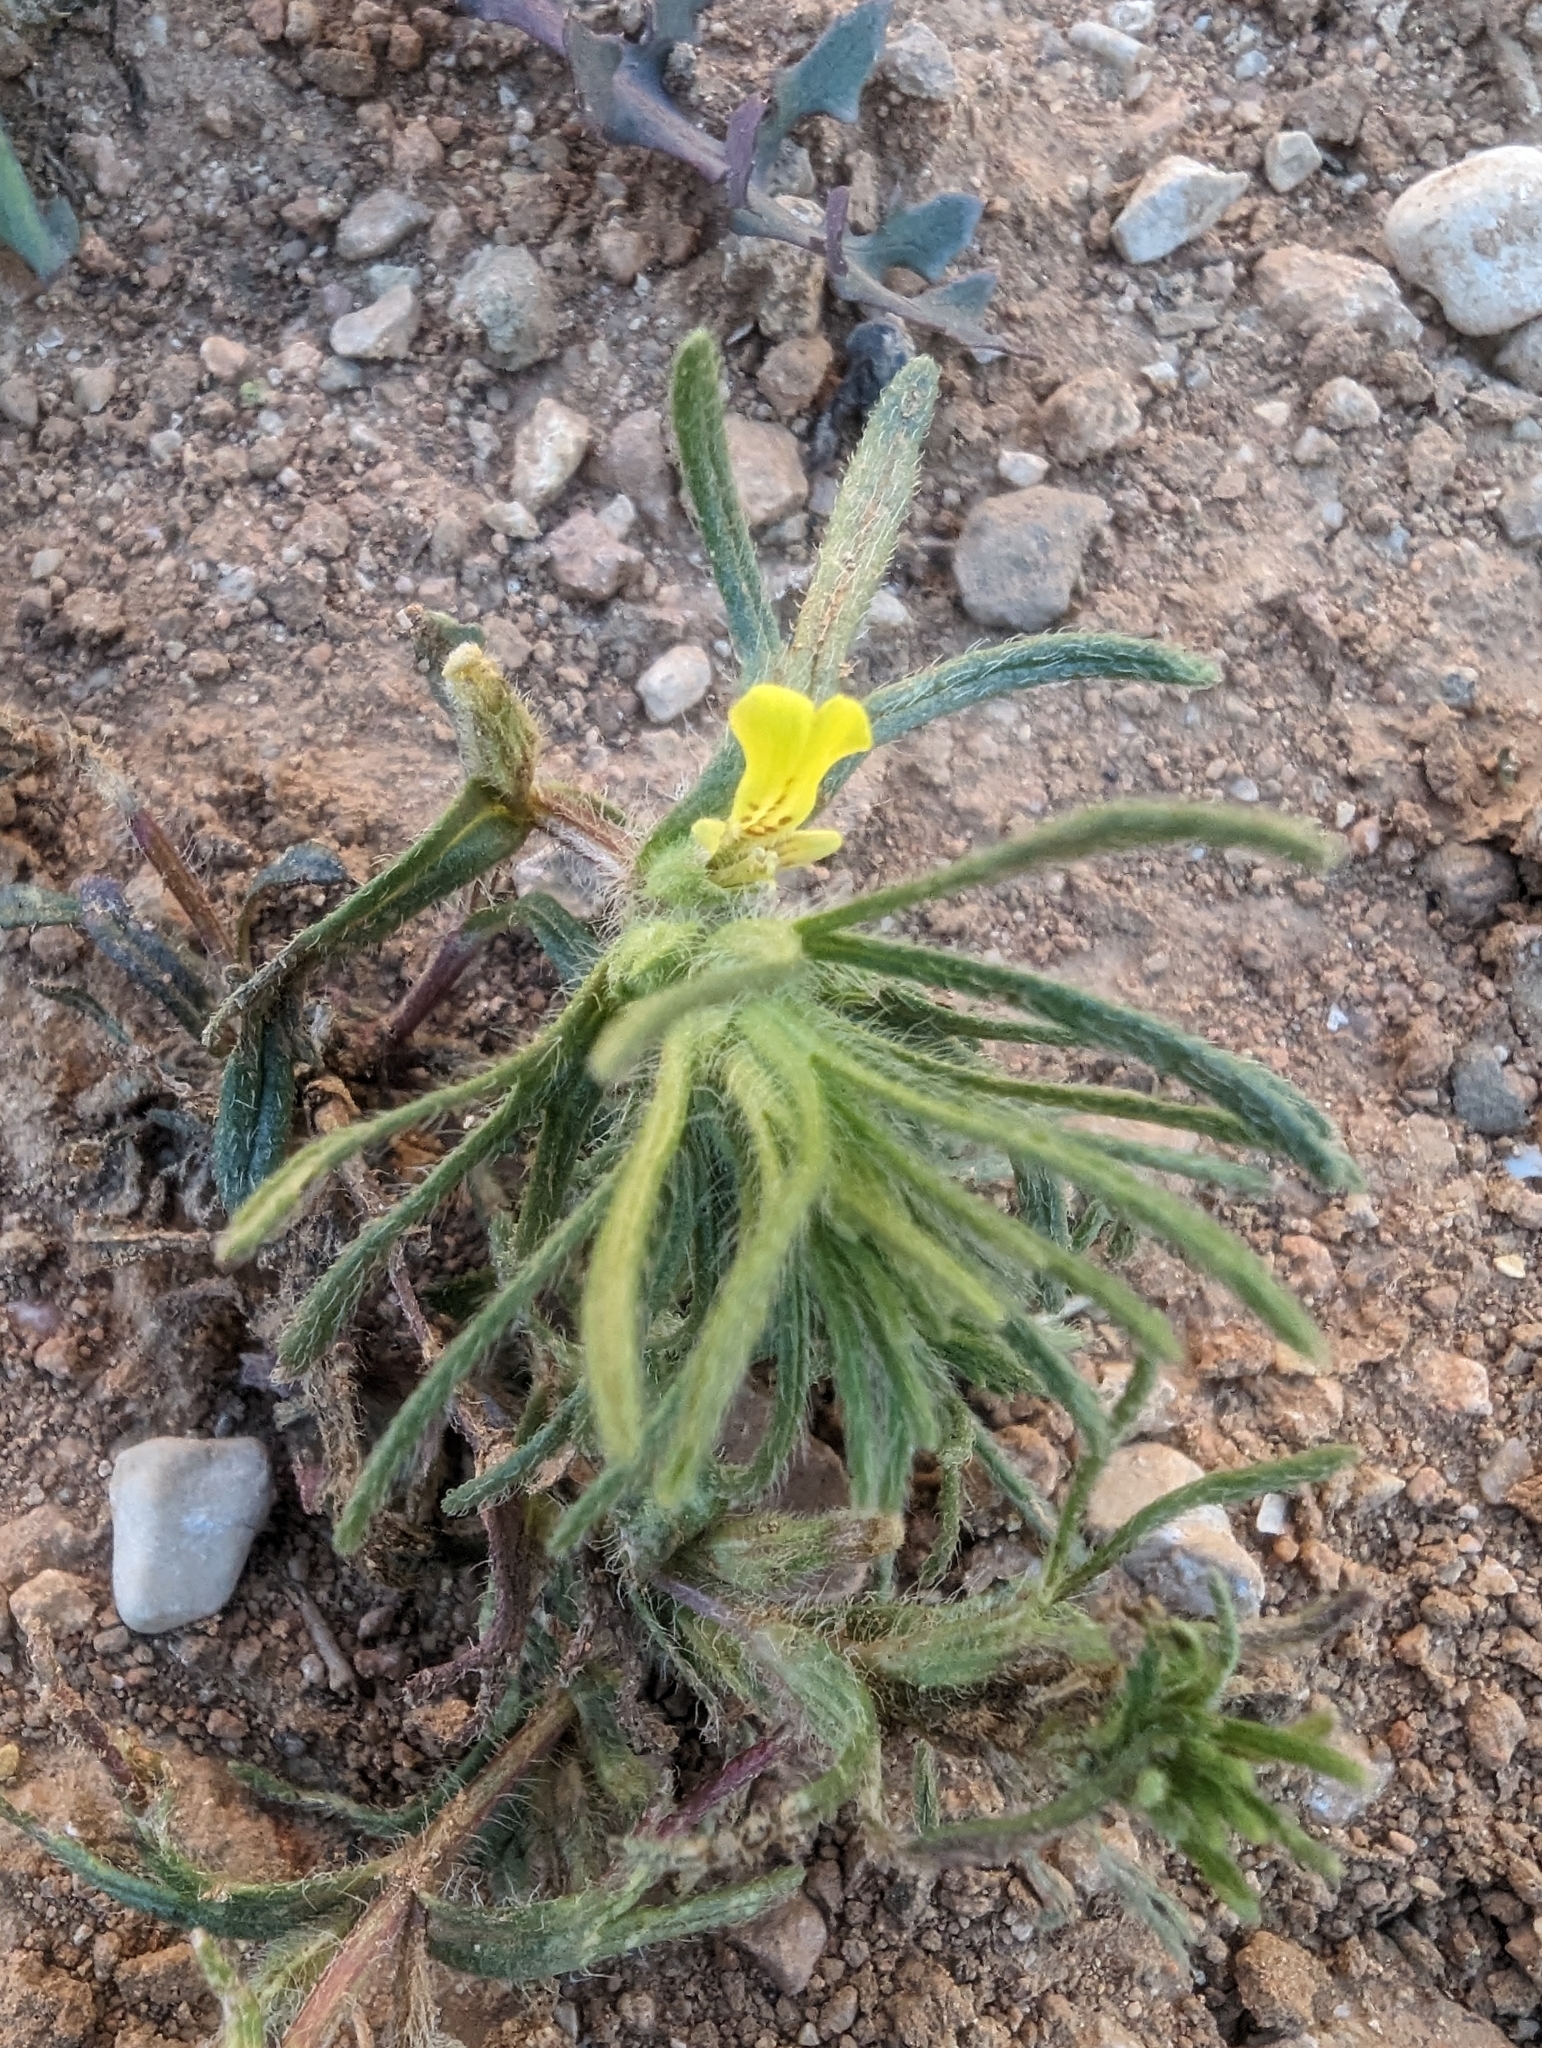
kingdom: Plantae
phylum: Tracheophyta
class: Magnoliopsida
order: Lamiales
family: Lamiaceae
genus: Ajuga
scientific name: Ajuga chamaepitys
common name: Ground-pine
